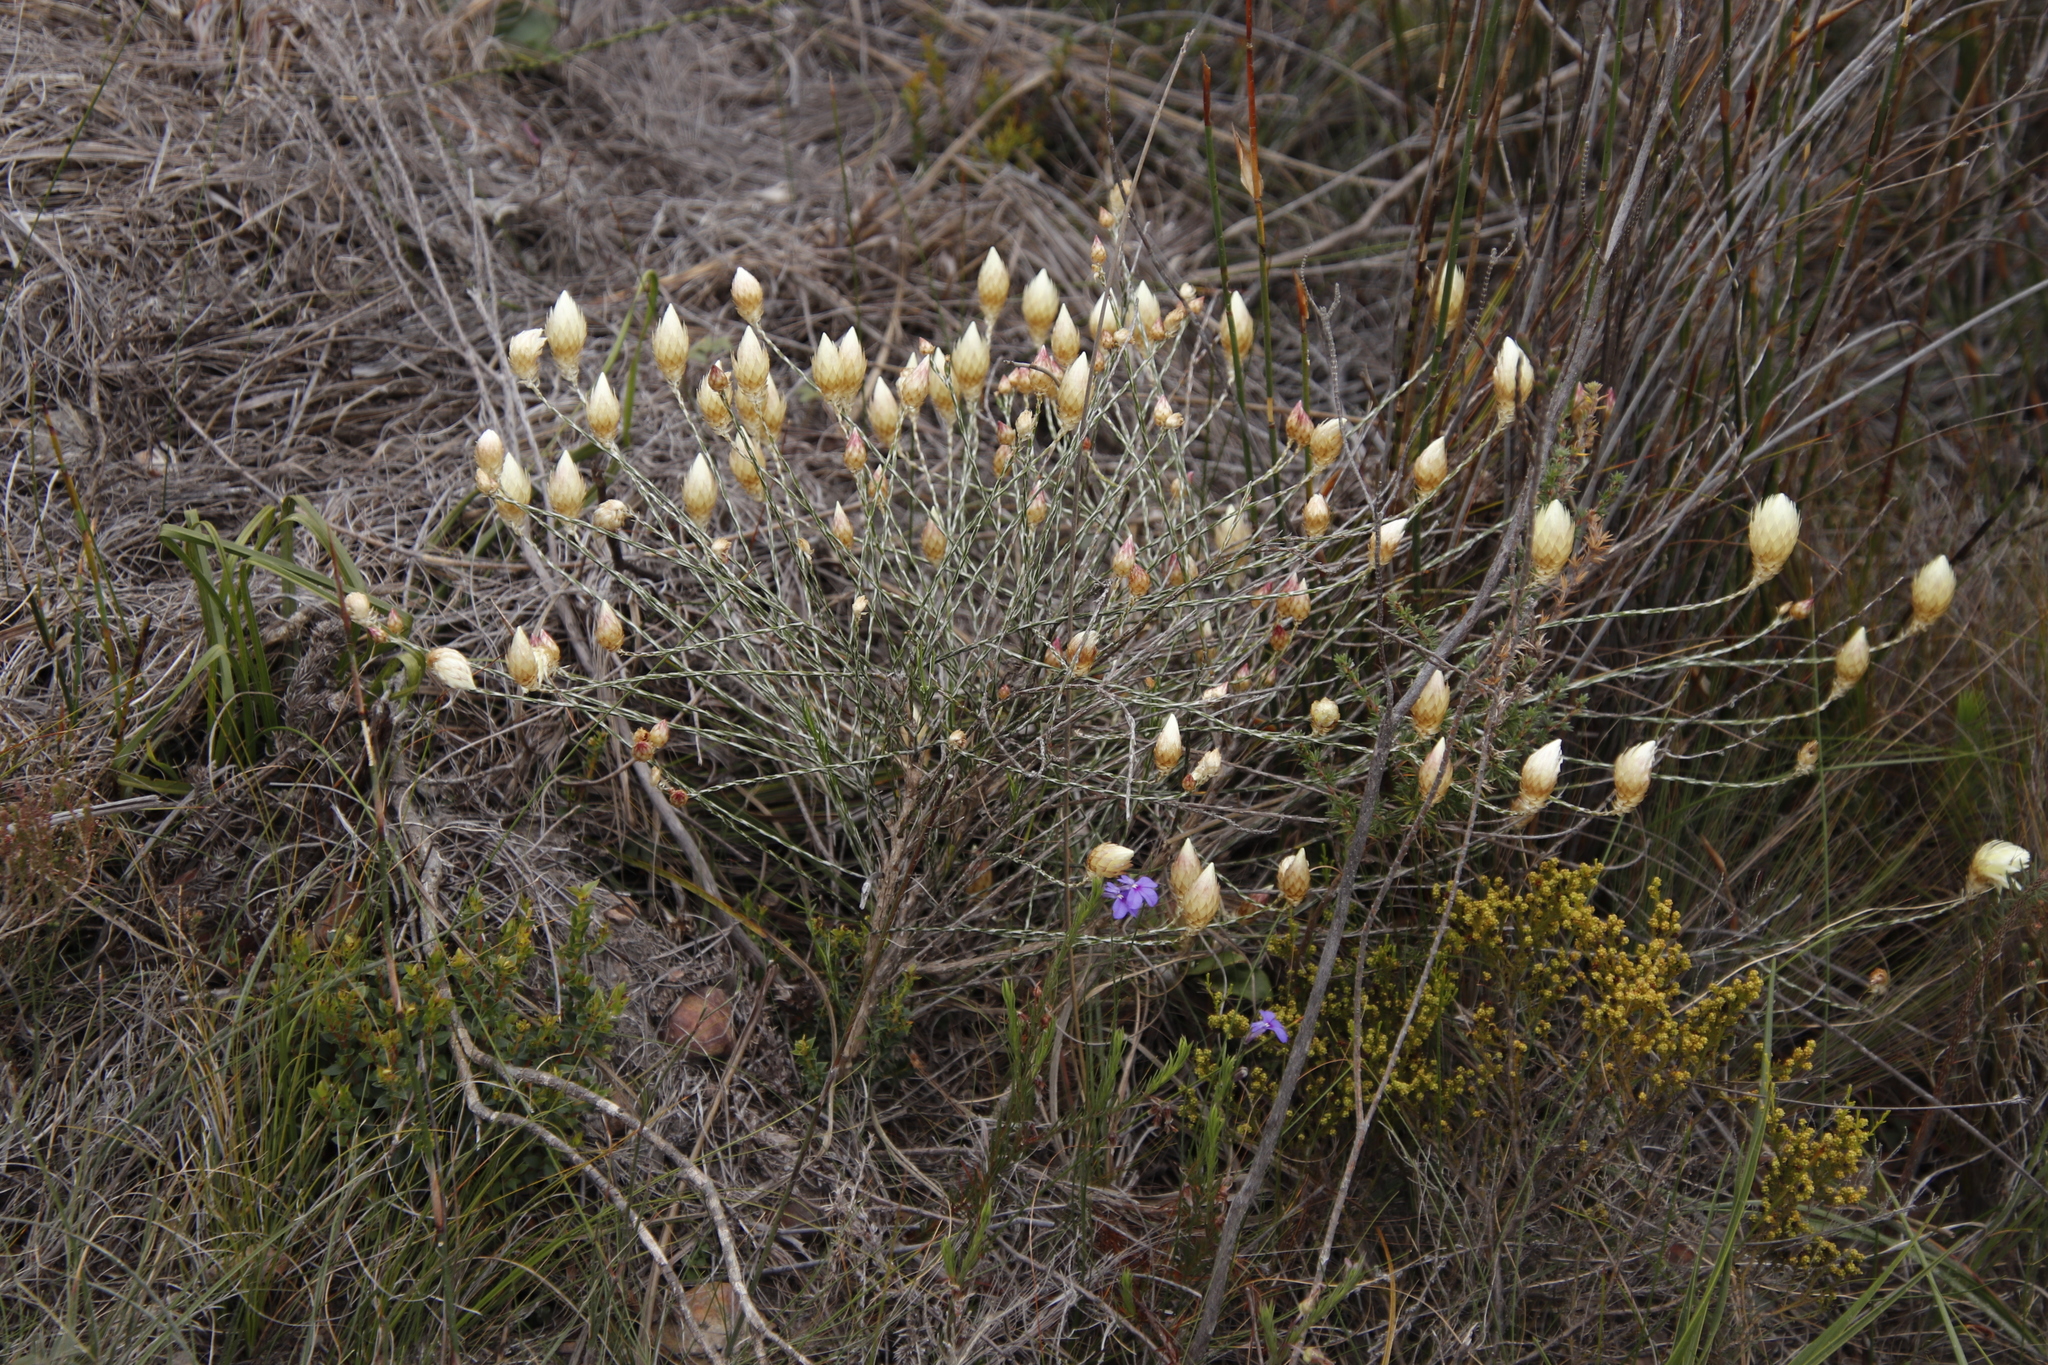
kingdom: Plantae
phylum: Tracheophyta
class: Magnoliopsida
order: Asterales
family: Asteraceae
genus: Edmondia
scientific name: Edmondia sesamoides
